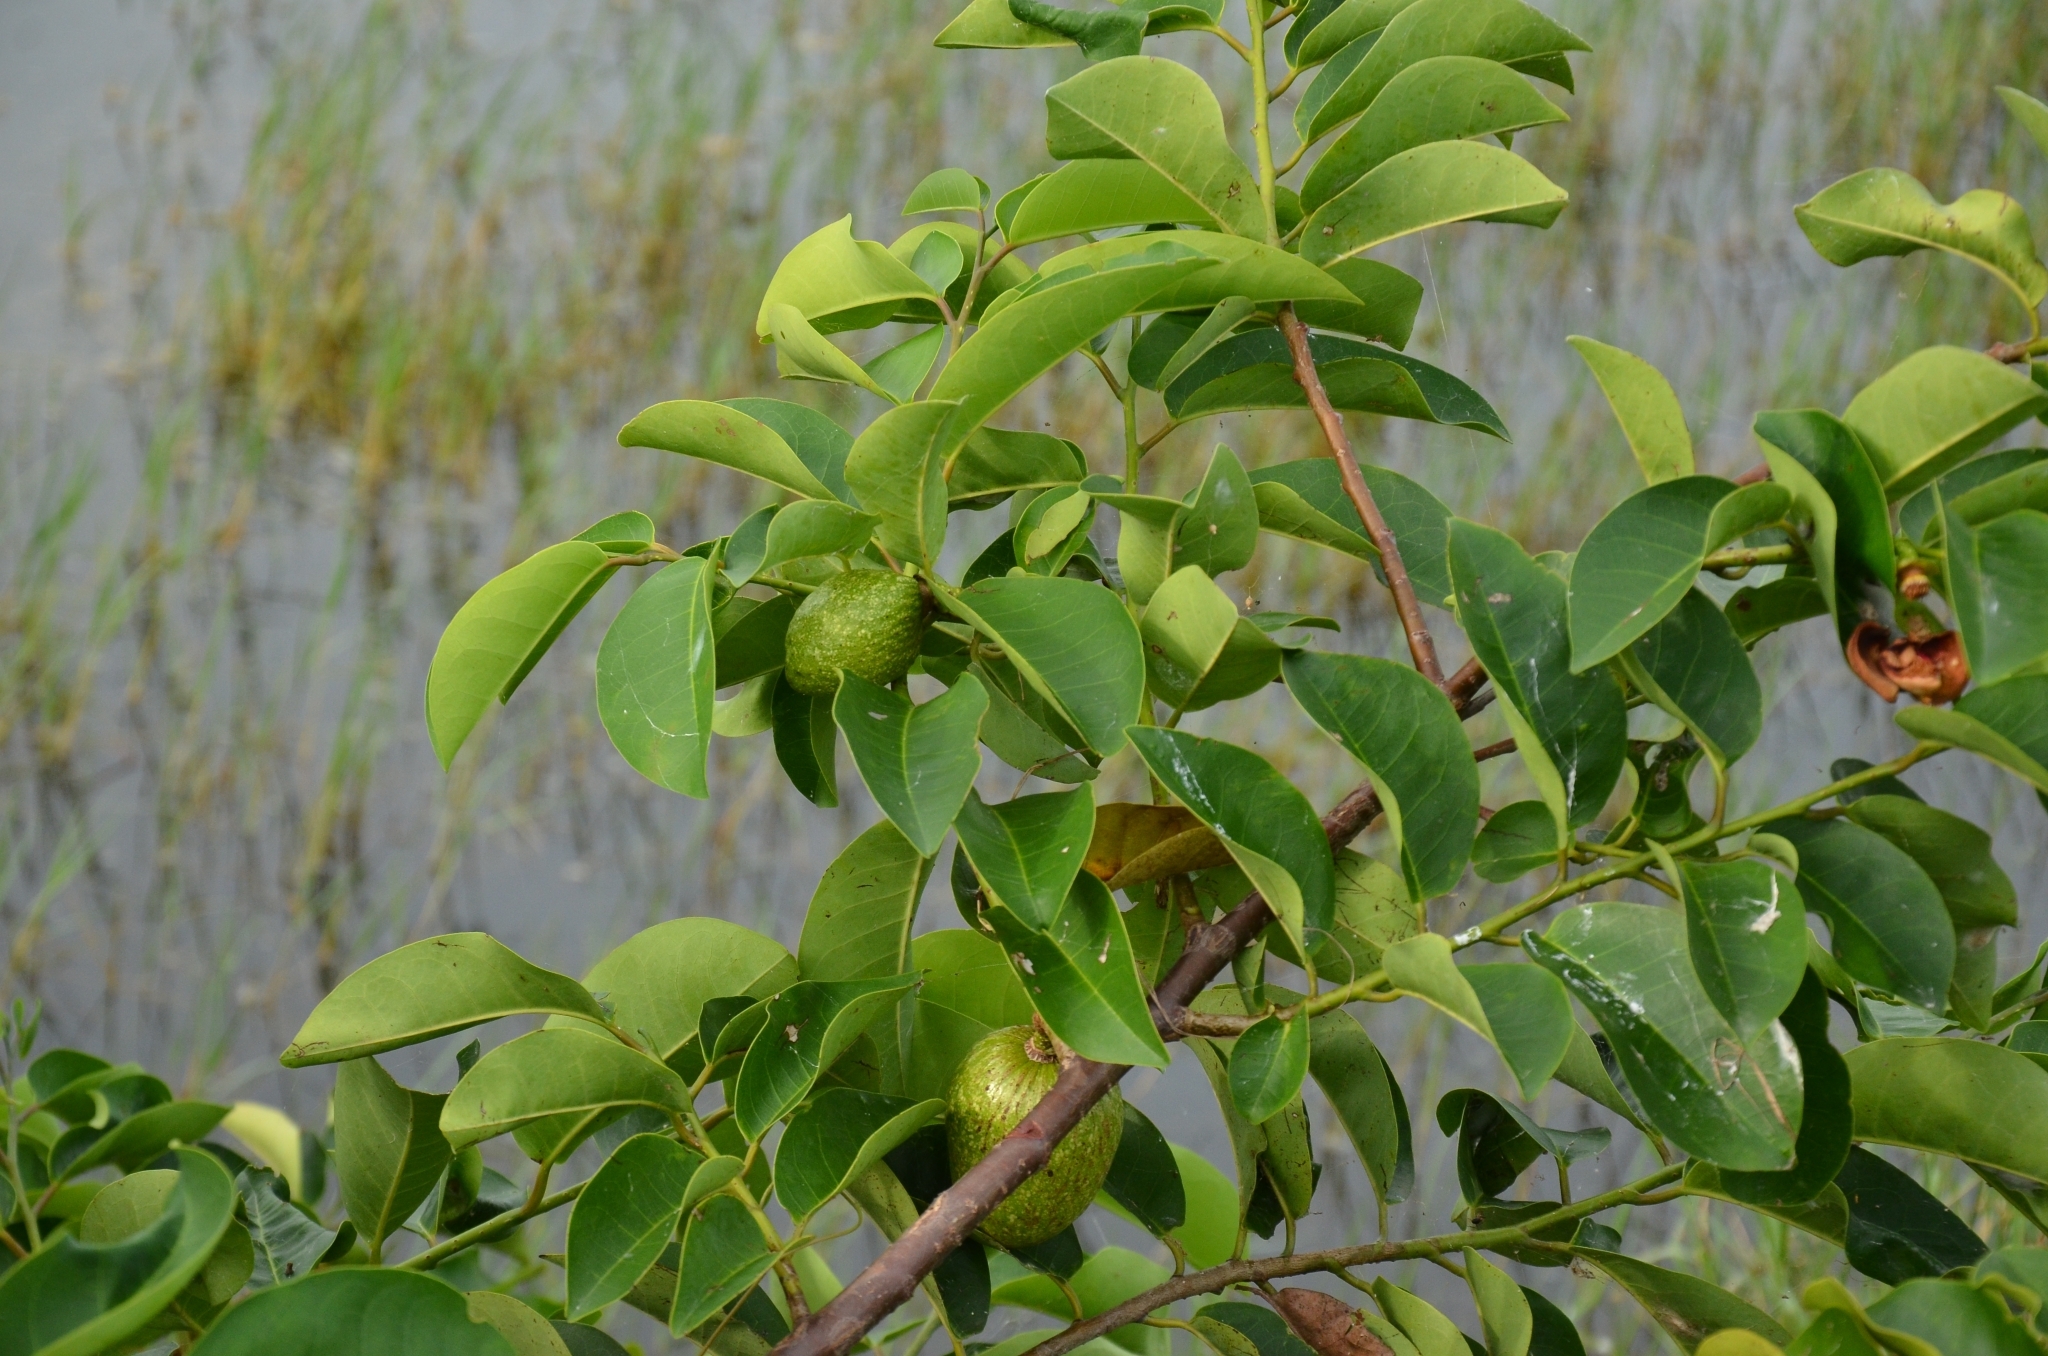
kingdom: Plantae
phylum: Tracheophyta
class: Magnoliopsida
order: Magnoliales
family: Annonaceae
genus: Annona
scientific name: Annona glabra
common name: Monkey apple
